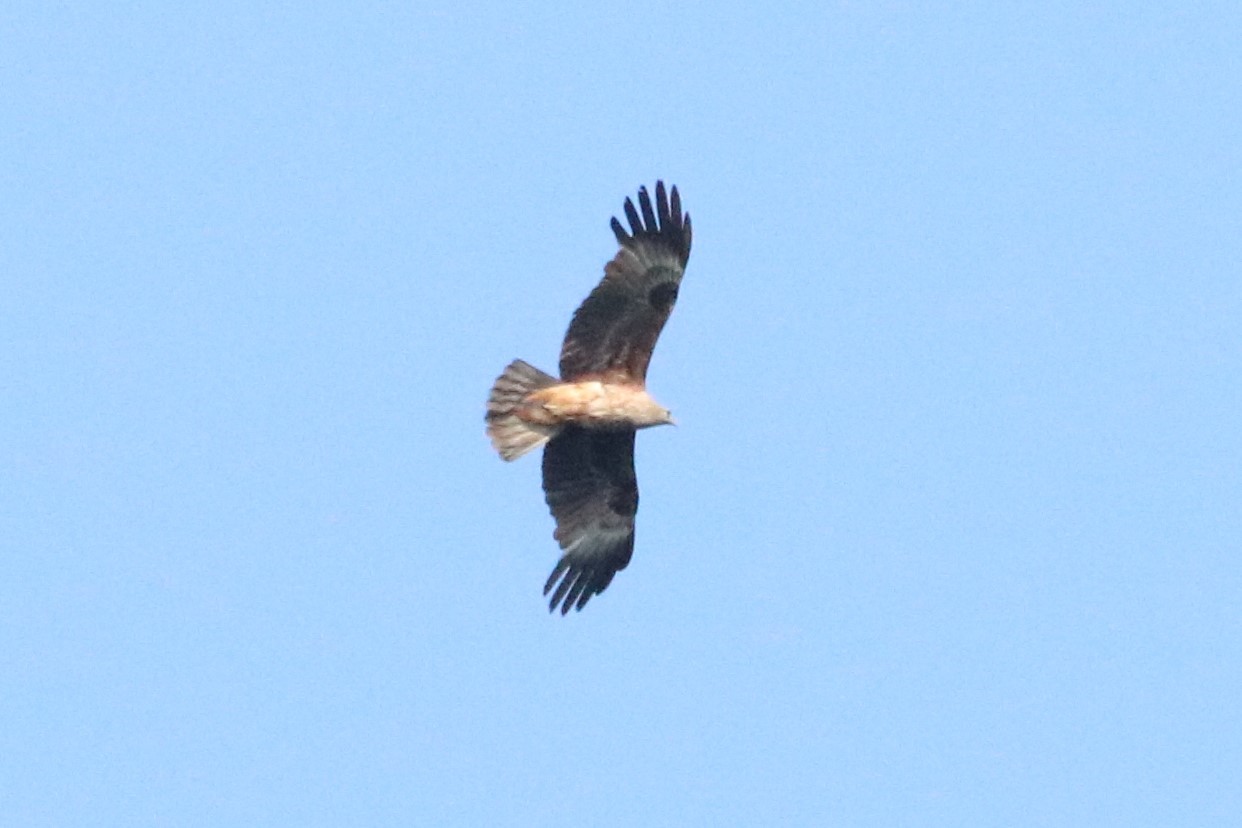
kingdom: Animalia
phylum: Chordata
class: Aves
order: Accipitriformes
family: Accipitridae
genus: Haliastur
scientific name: Haliastur indus
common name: Brahminy kite
